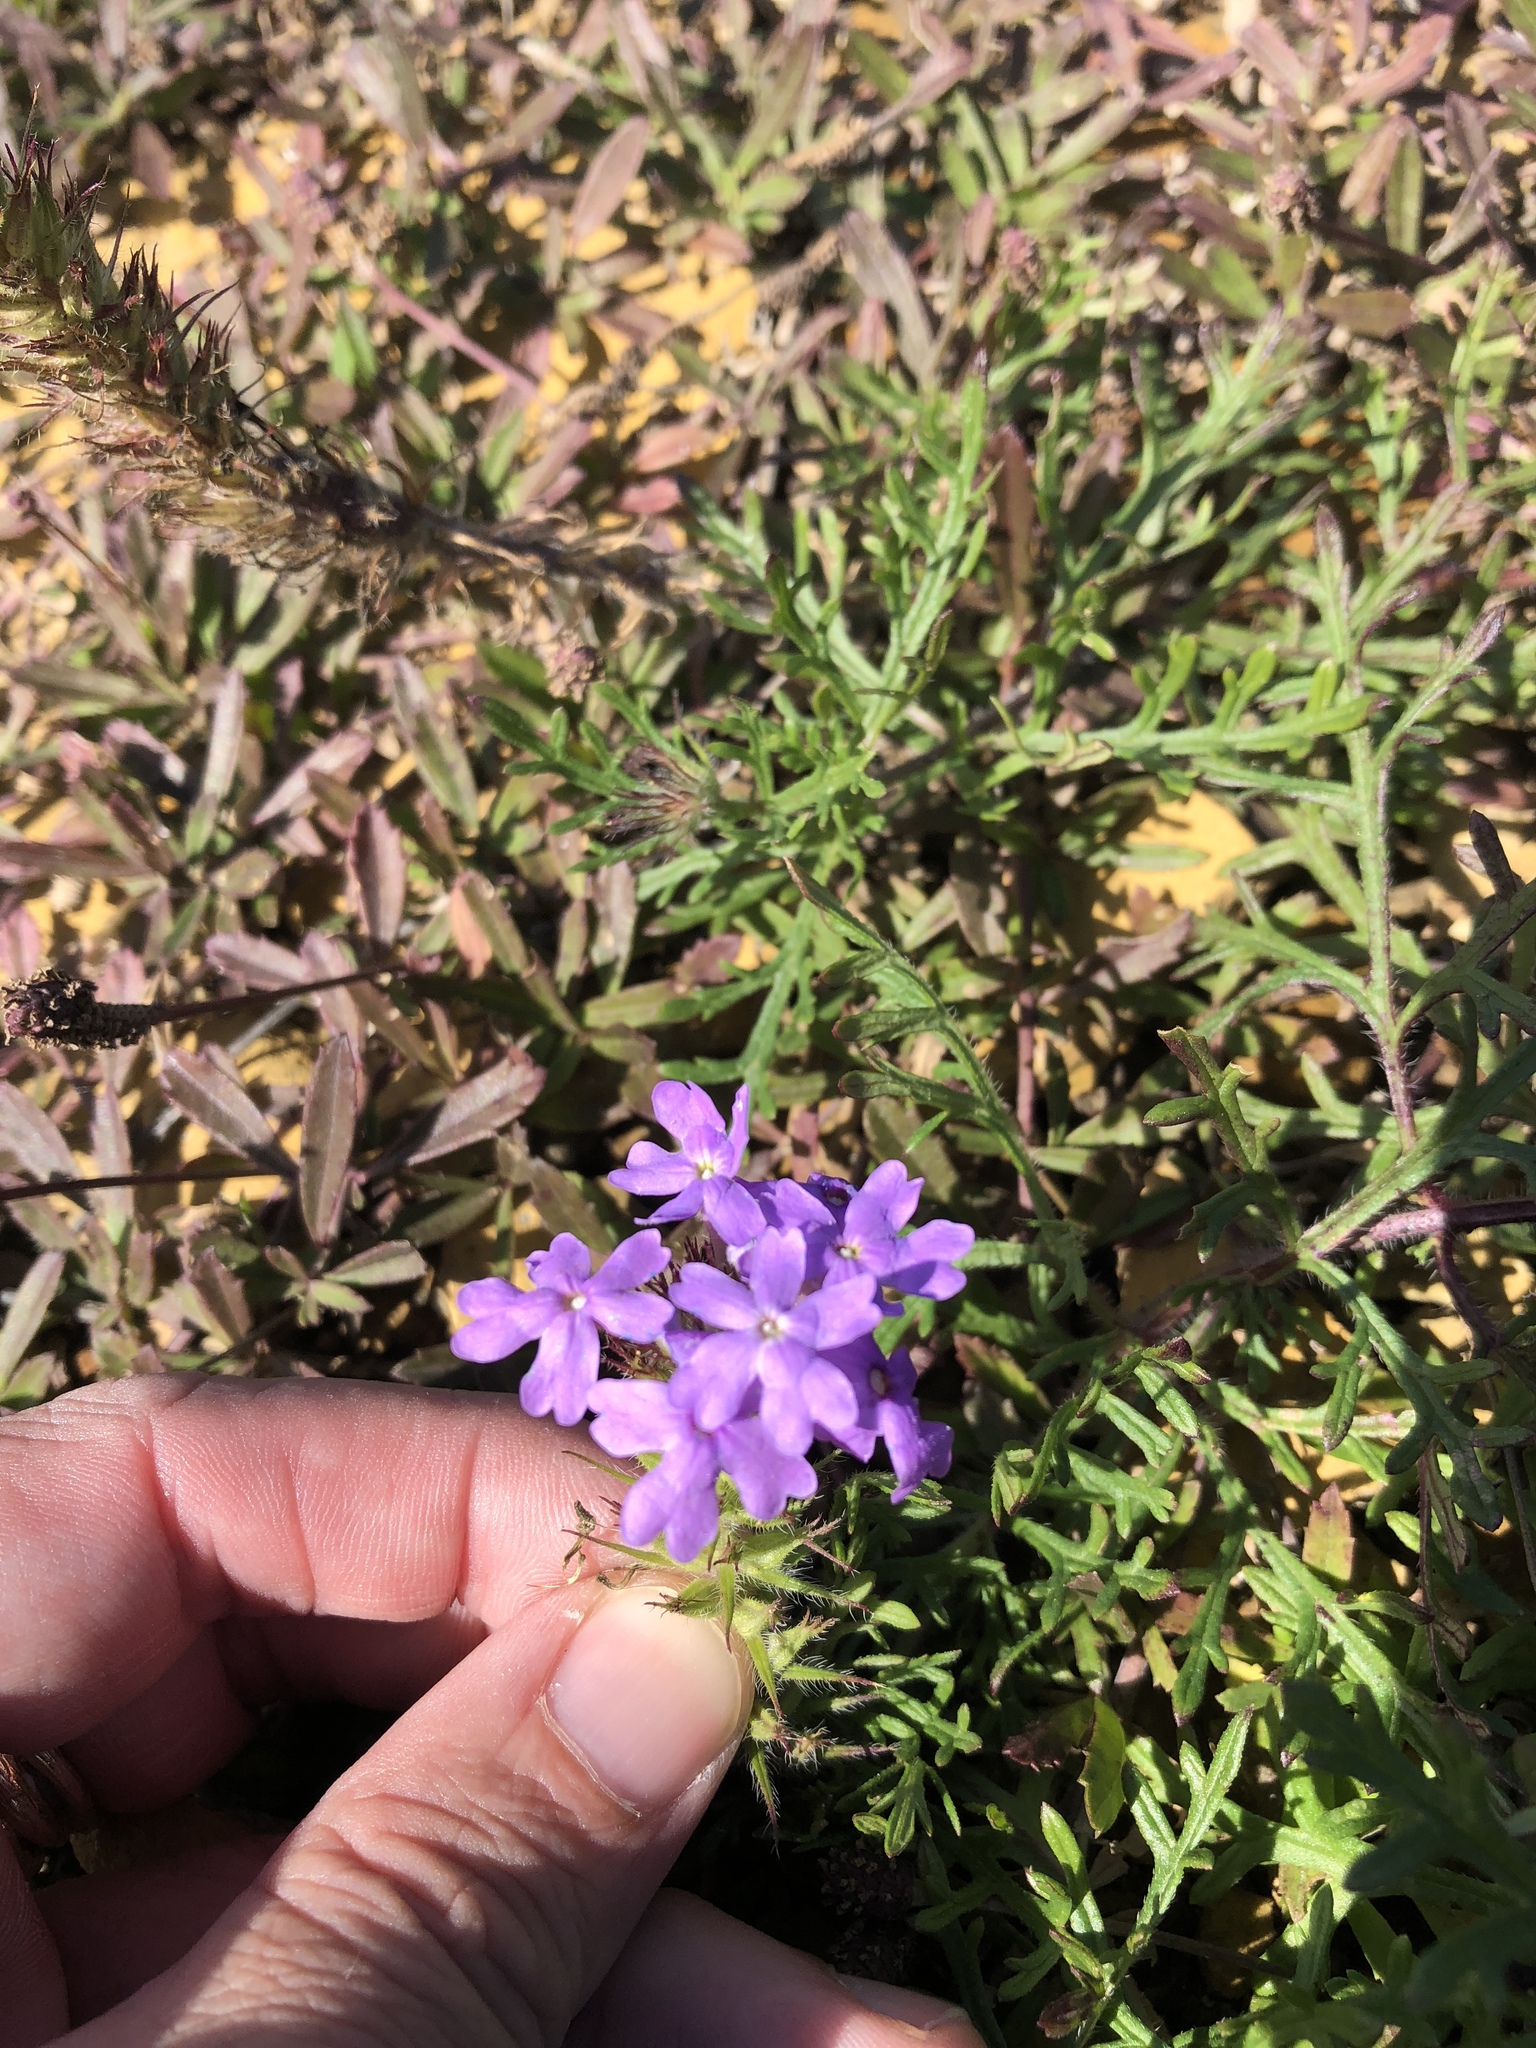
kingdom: Plantae
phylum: Tracheophyta
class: Magnoliopsida
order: Lamiales
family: Verbenaceae
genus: Verbena
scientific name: Verbena bipinnatifida
